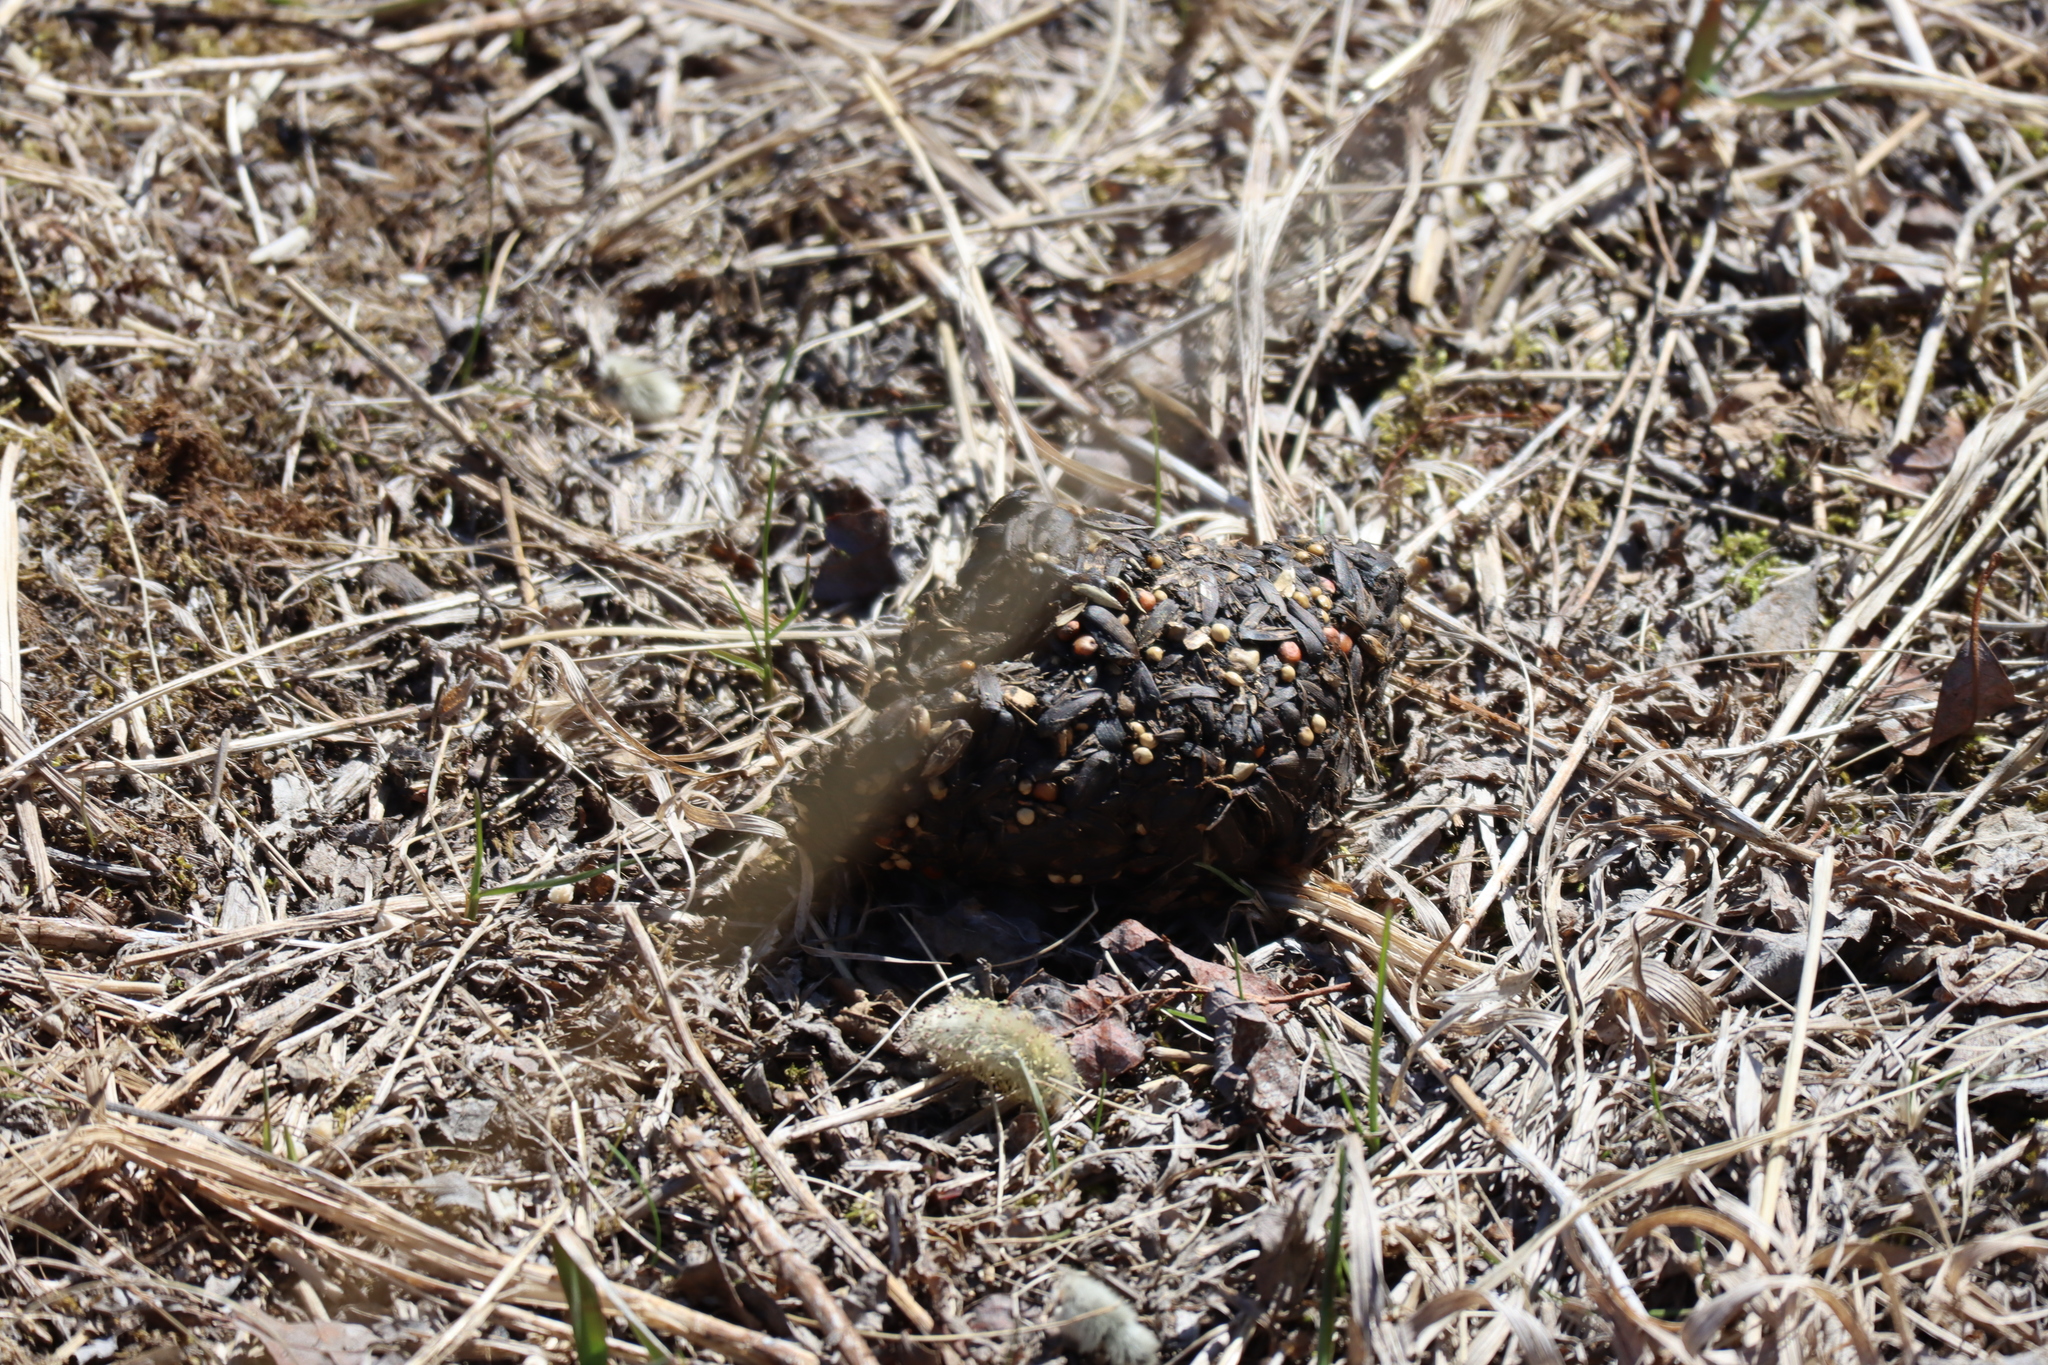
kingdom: Animalia
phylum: Chordata
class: Mammalia
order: Carnivora
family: Ursidae
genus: Ursus
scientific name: Ursus americanus
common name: American black bear
